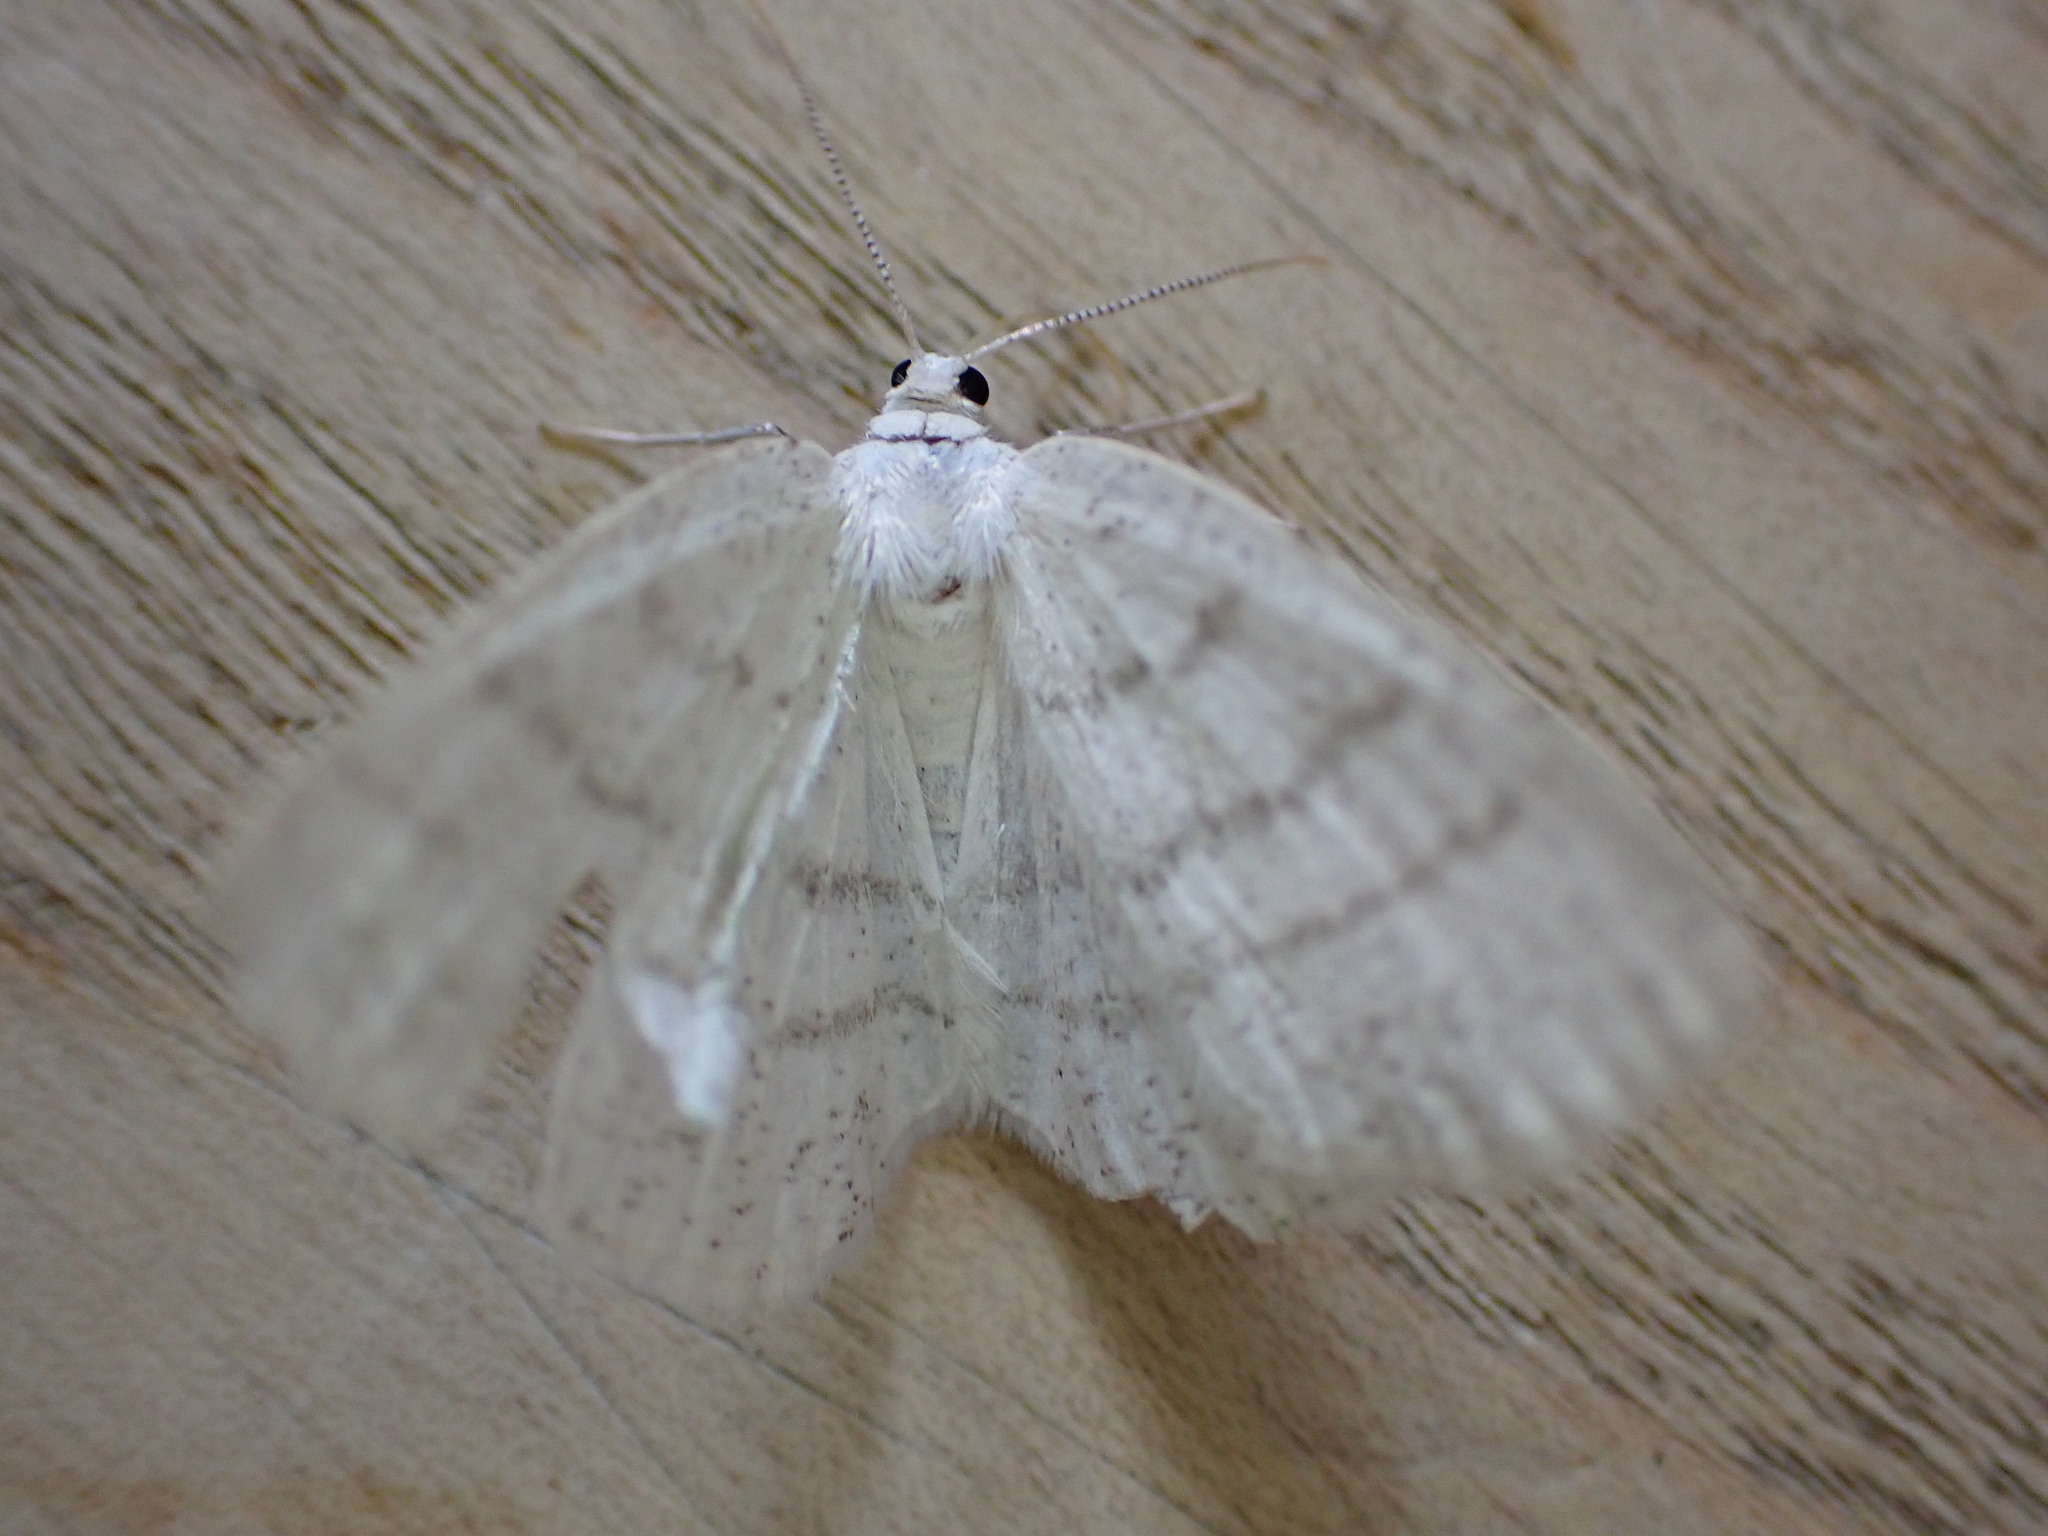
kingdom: Animalia
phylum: Arthropoda
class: Insecta
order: Lepidoptera
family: Geometridae
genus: Cabera
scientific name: Cabera pusaria
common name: Common white wave
